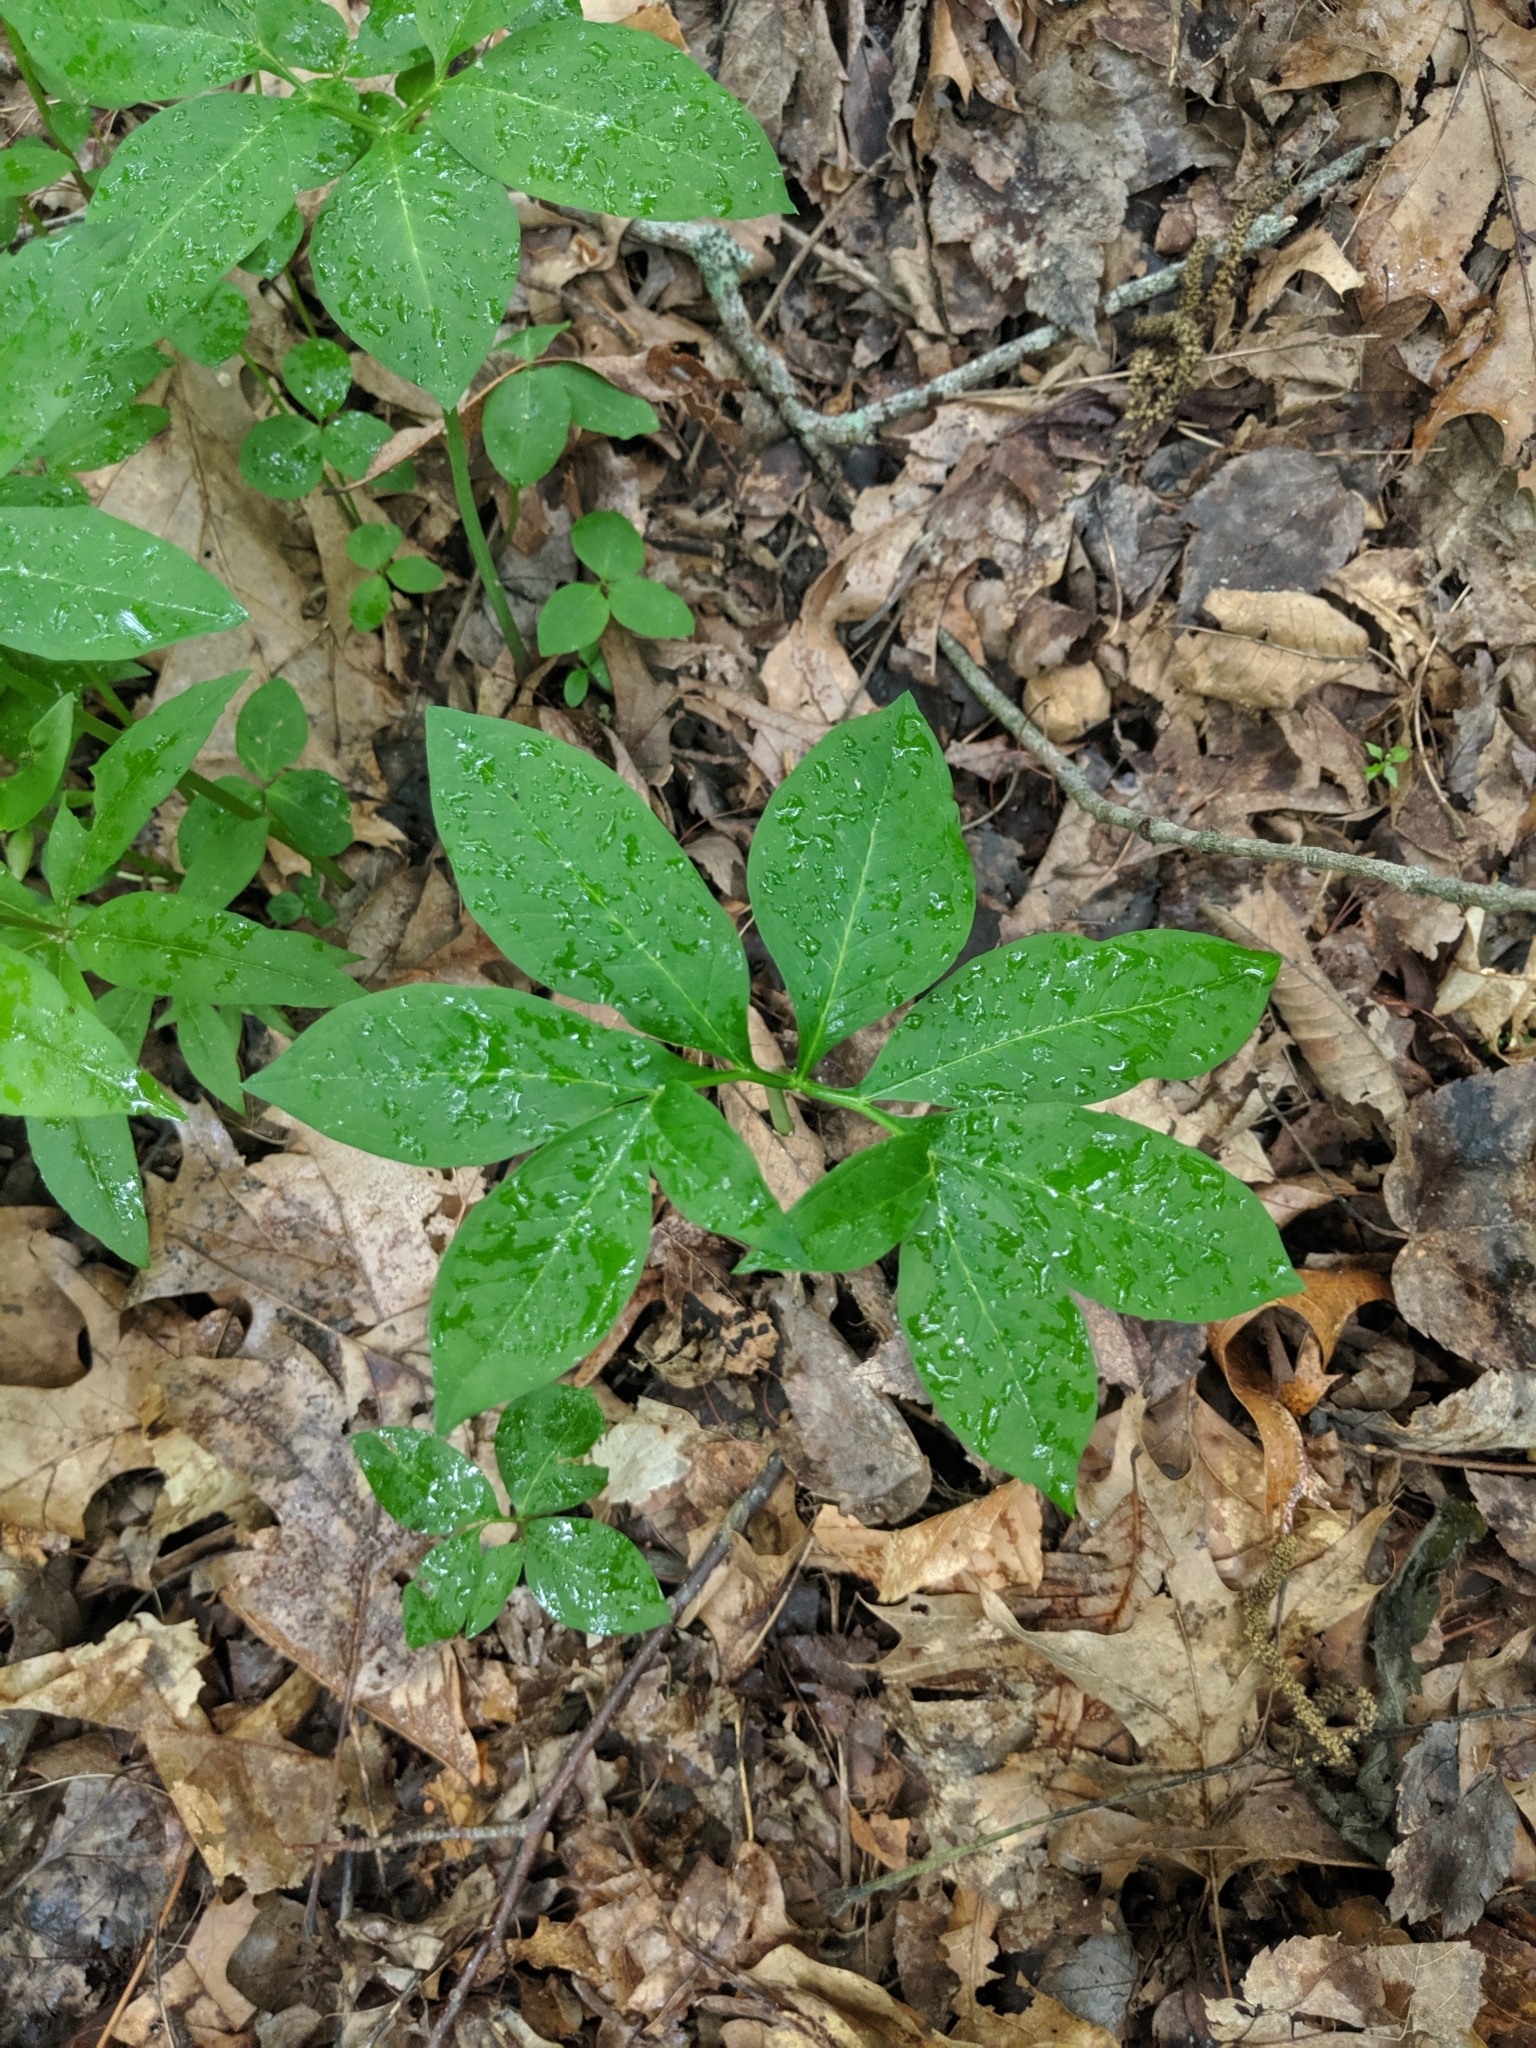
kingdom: Plantae
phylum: Tracheophyta
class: Liliopsida
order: Alismatales
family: Araceae
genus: Arisaema
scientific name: Arisaema dracontium
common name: Dragon-arum
